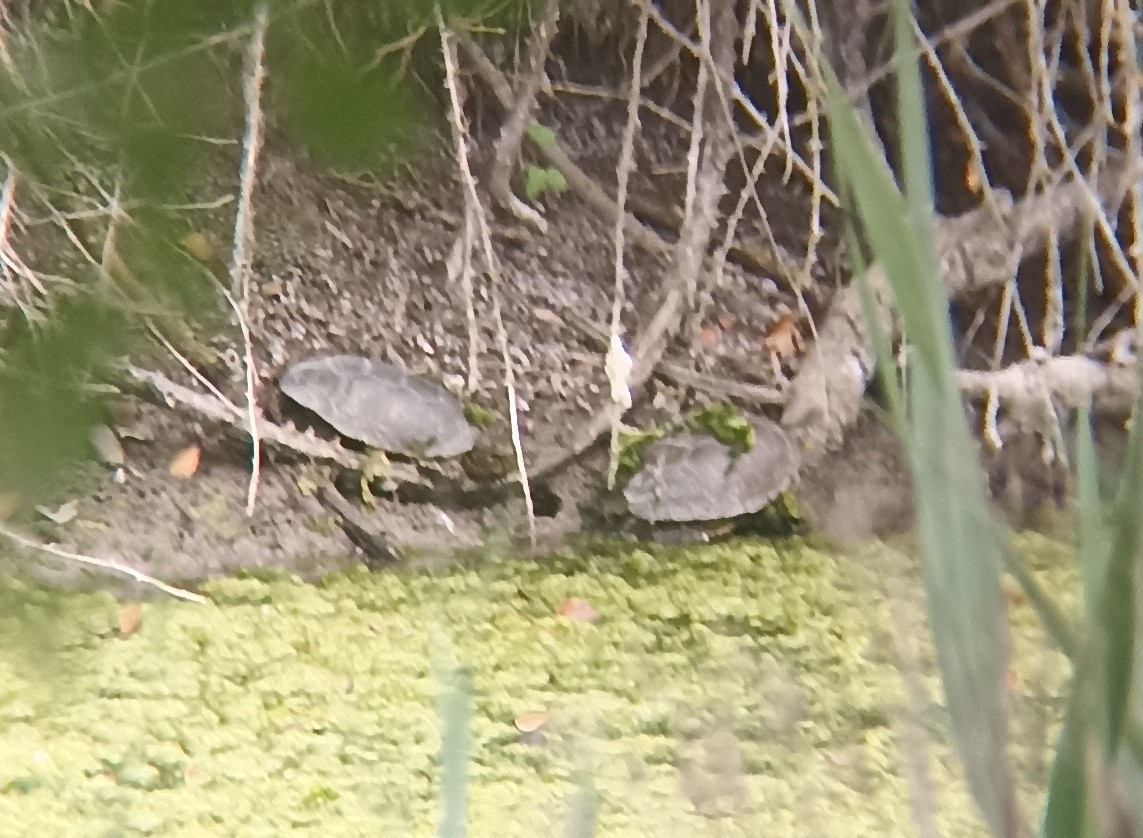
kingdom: Animalia
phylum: Chordata
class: Testudines
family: Emydidae
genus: Emys
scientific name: Emys orbicularis
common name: European pond turtle
